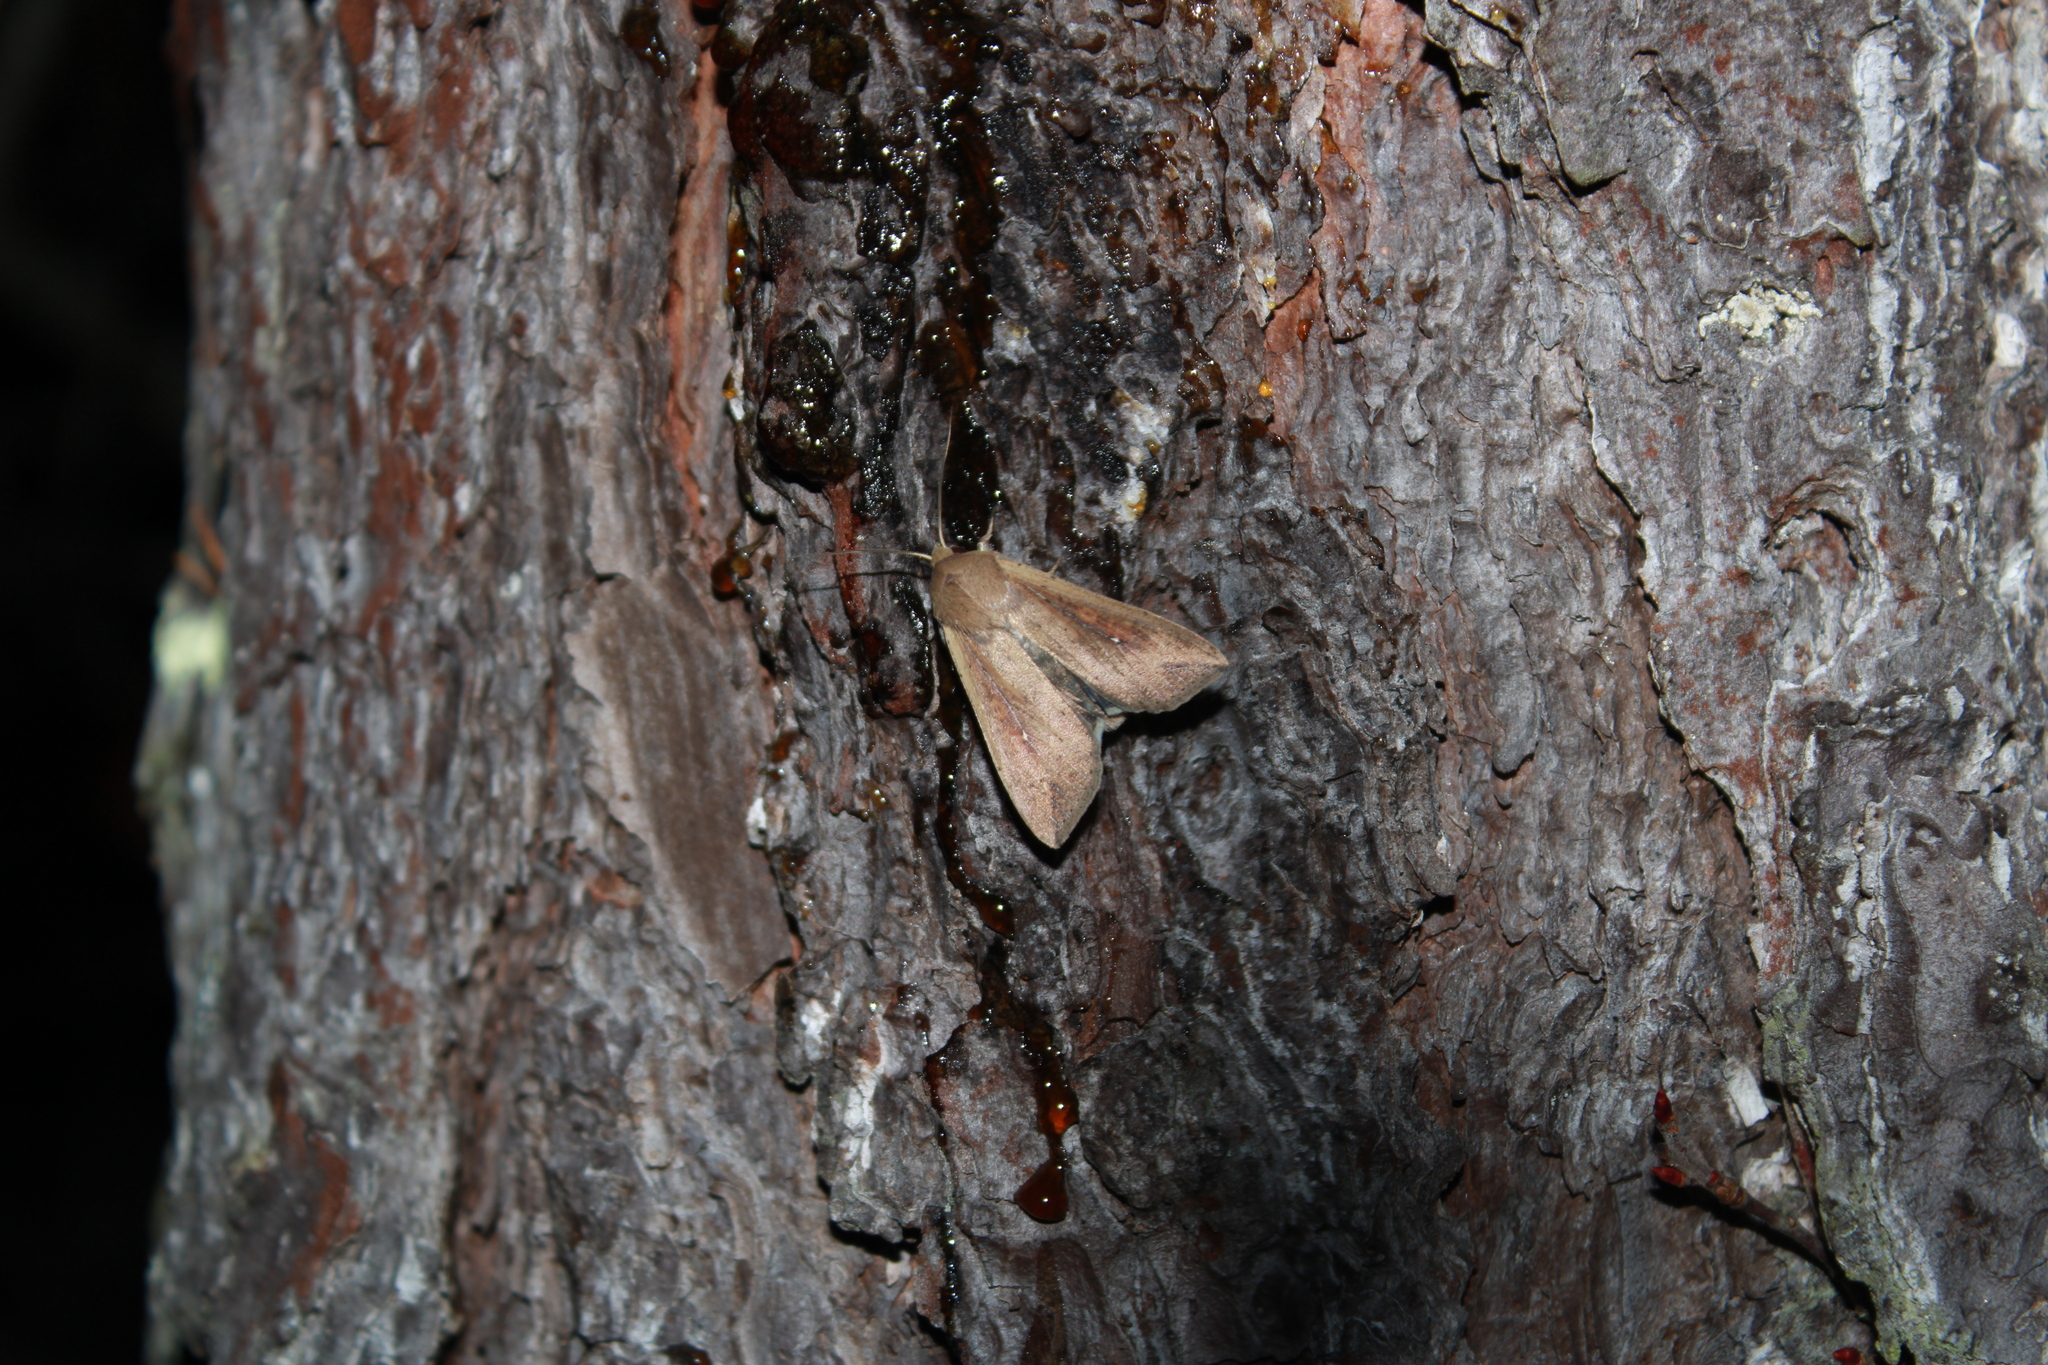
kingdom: Animalia
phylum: Arthropoda
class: Insecta
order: Lepidoptera
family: Noctuidae
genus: Mythimna
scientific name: Mythimna unipuncta
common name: White-speck
